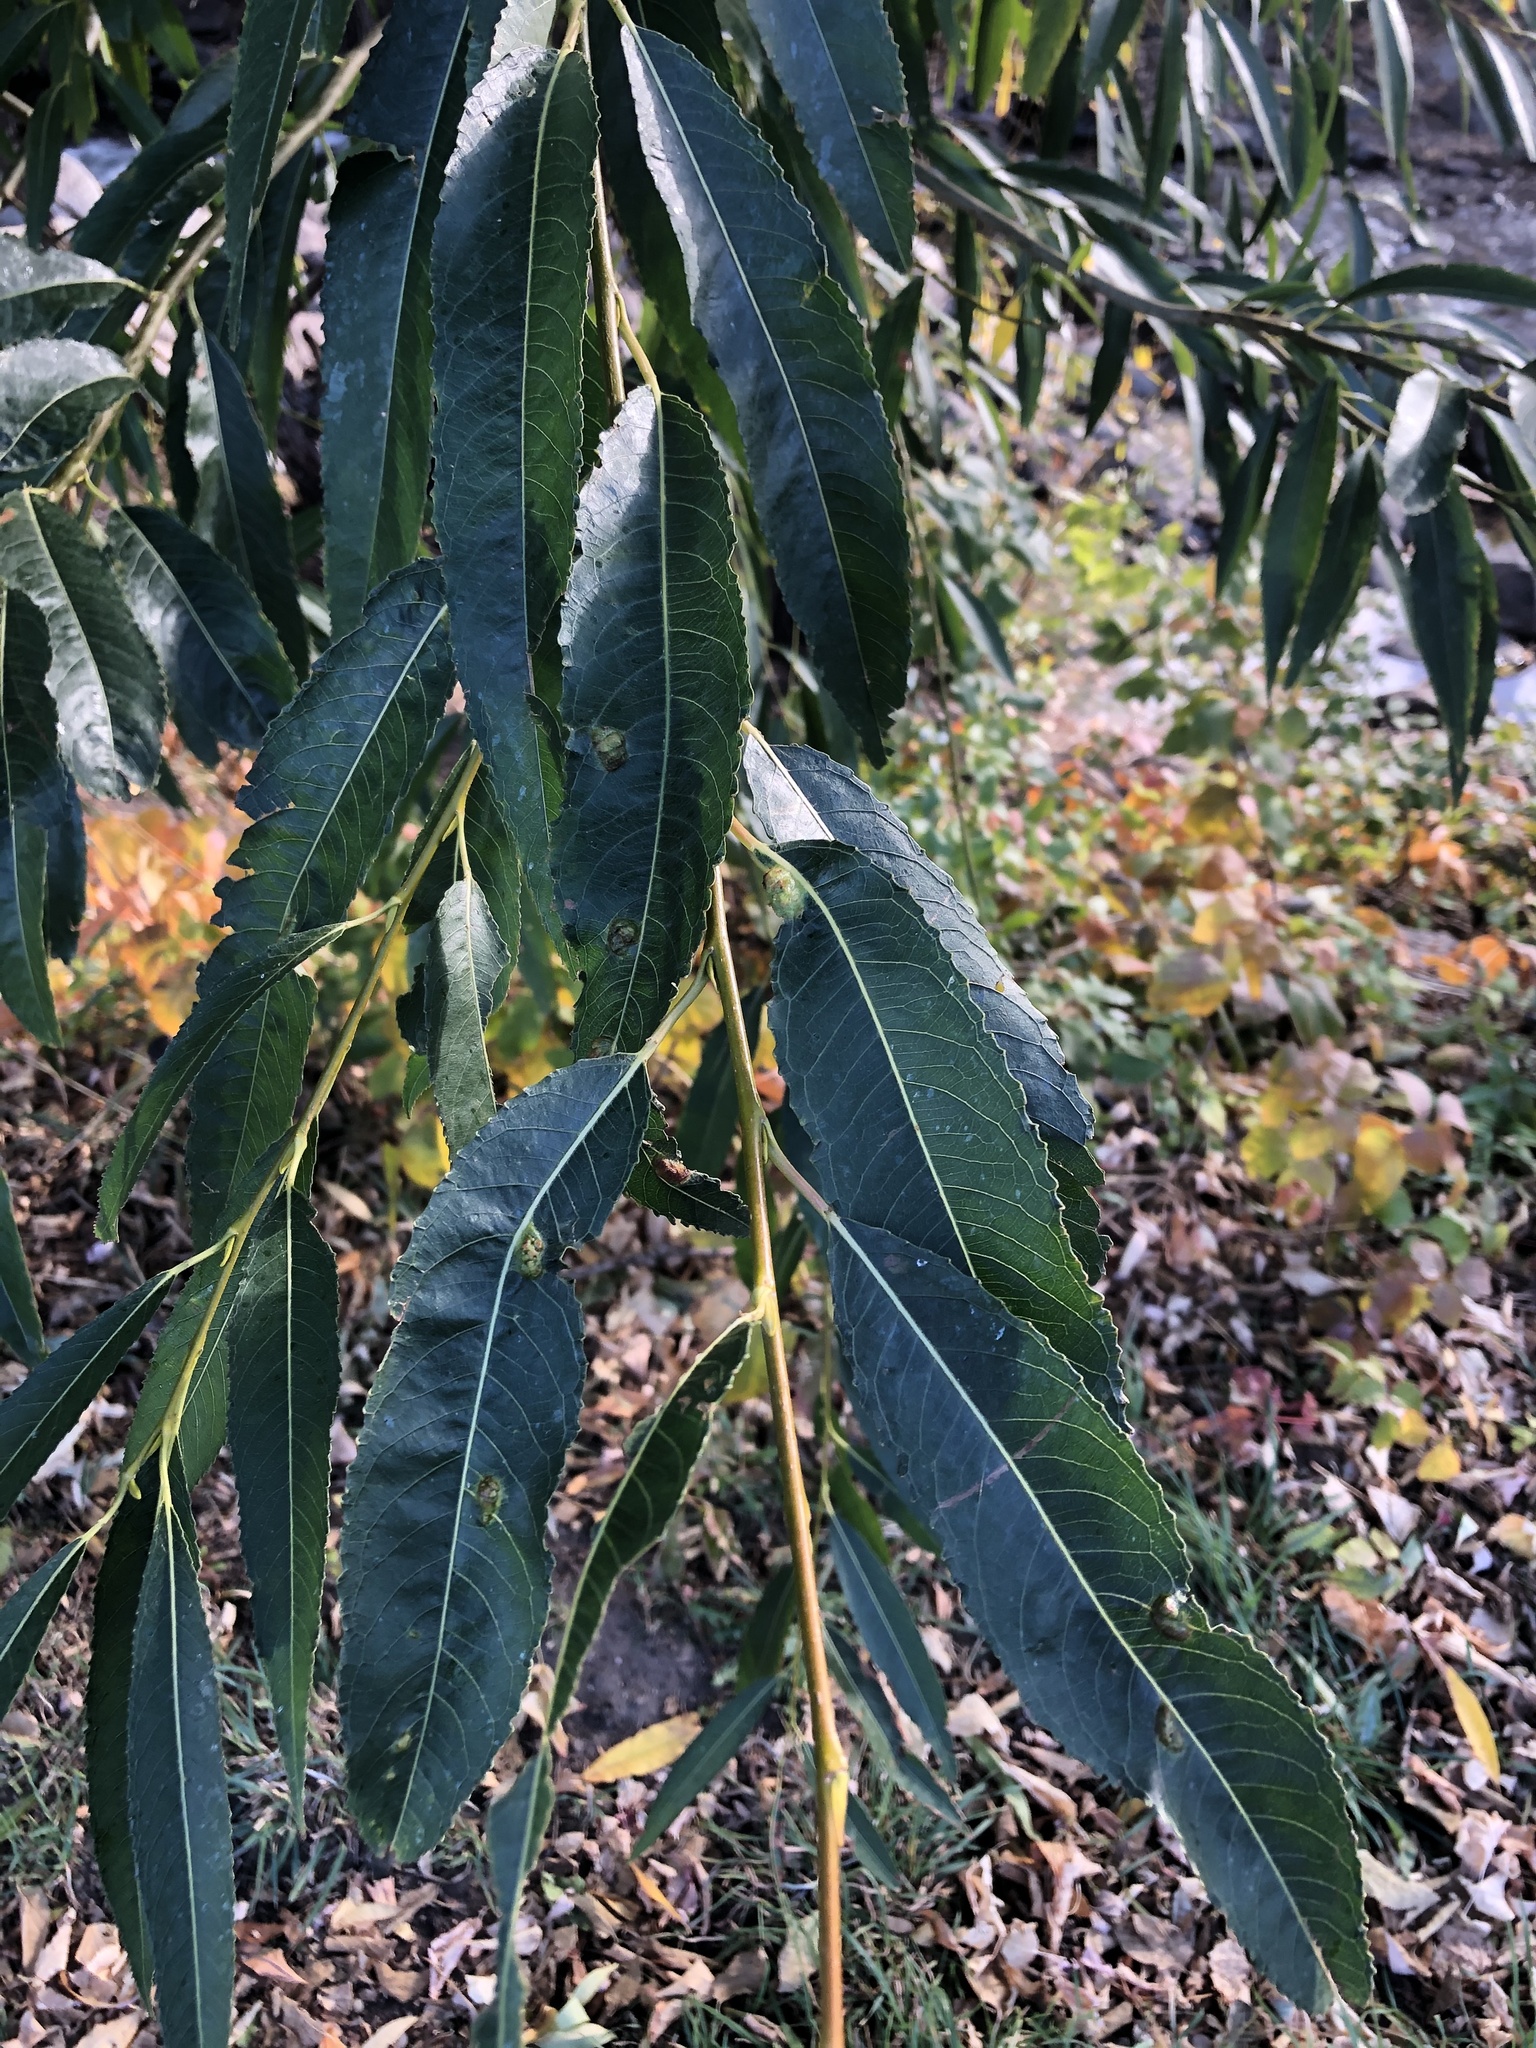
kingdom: Plantae
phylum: Tracheophyta
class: Magnoliopsida
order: Malpighiales
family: Salicaceae
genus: Salix
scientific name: Salix fragilis
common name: Crack willow
